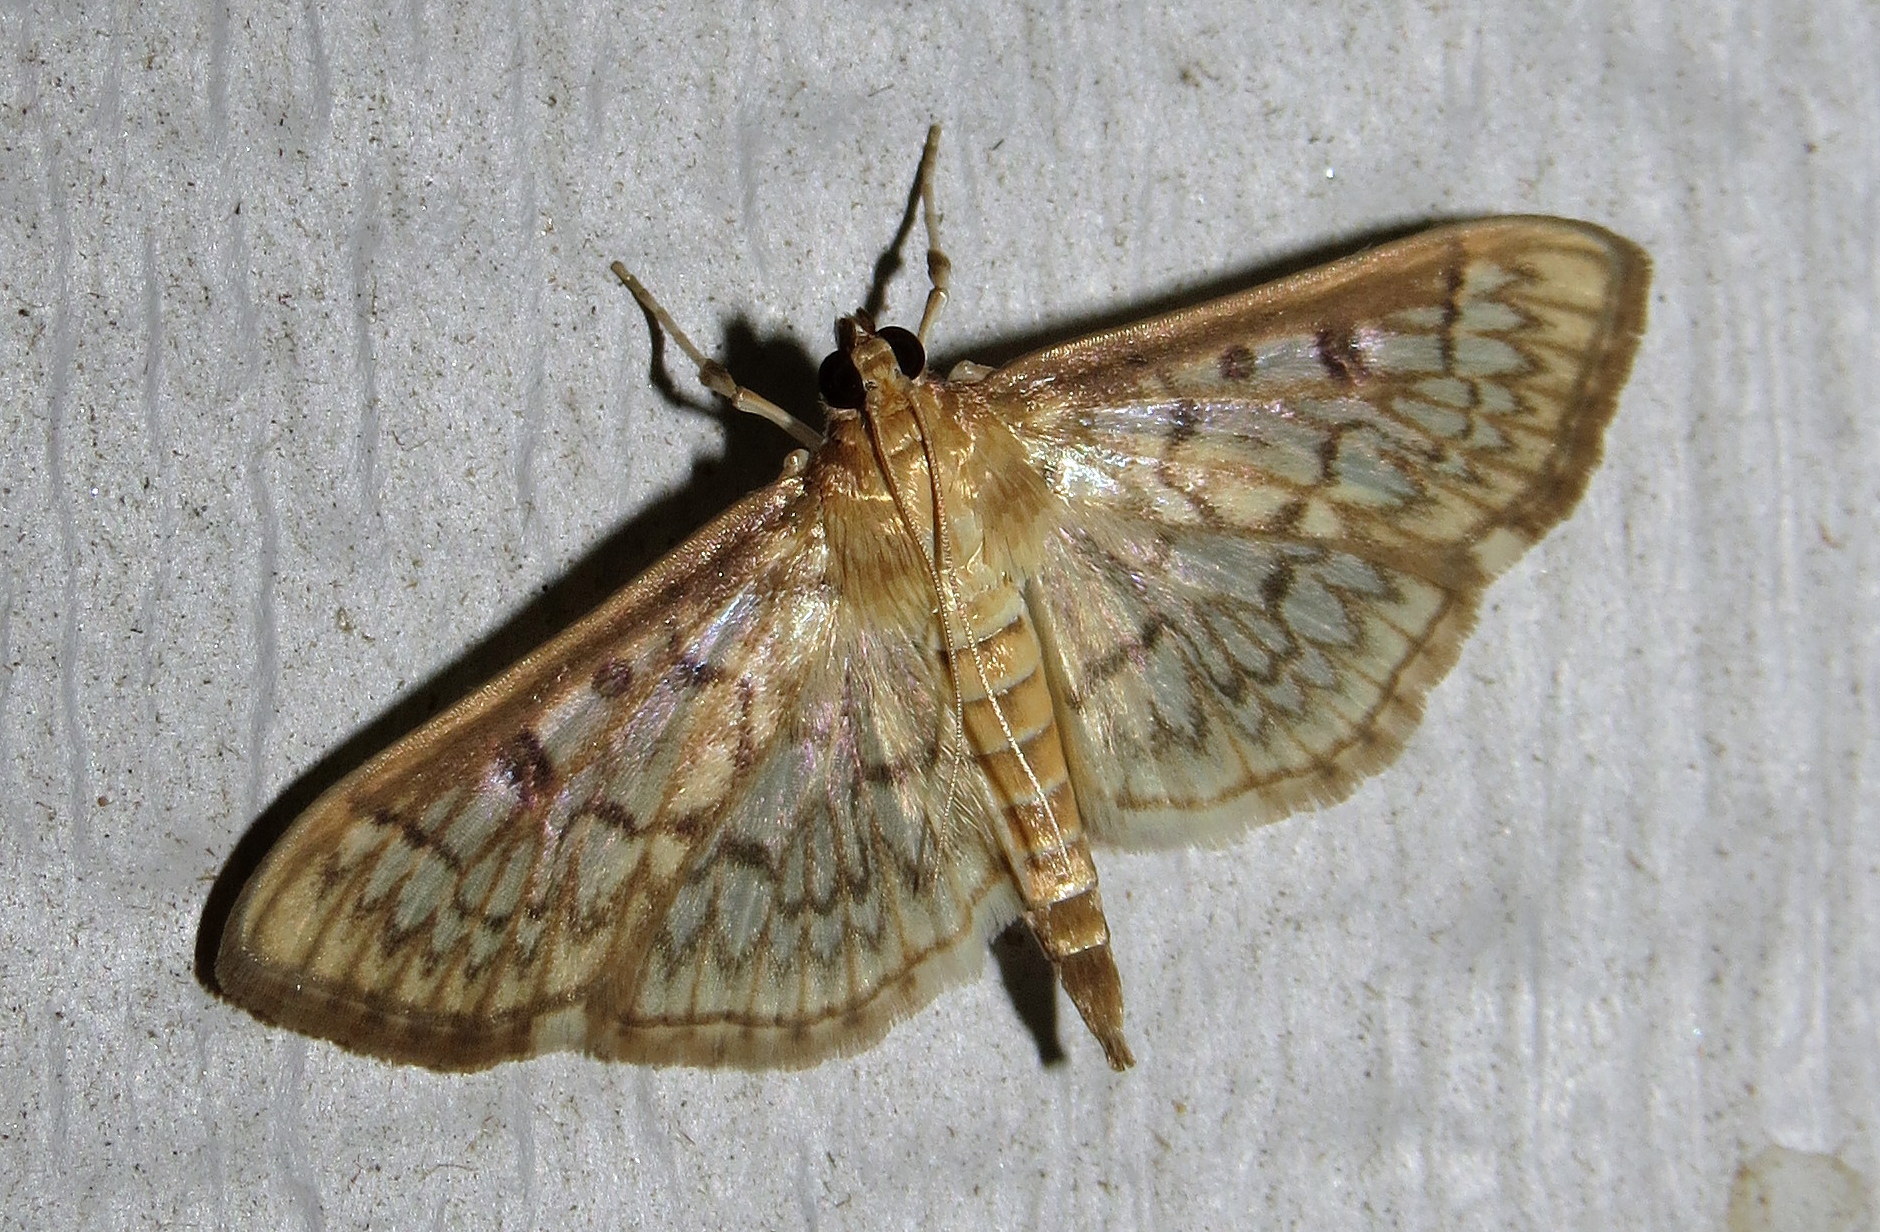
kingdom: Animalia
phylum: Arthropoda
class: Insecta
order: Lepidoptera
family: Crambidae
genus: Herpetogramma
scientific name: Herpetogramma pertextalis
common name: Bold-feathered grass moth
